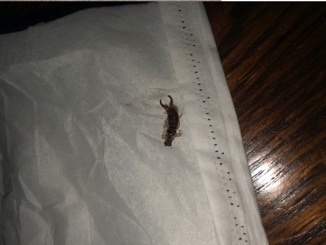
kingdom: Animalia
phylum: Arthropoda
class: Insecta
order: Dermaptera
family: Forficulidae
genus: Forficula
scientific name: Forficula
